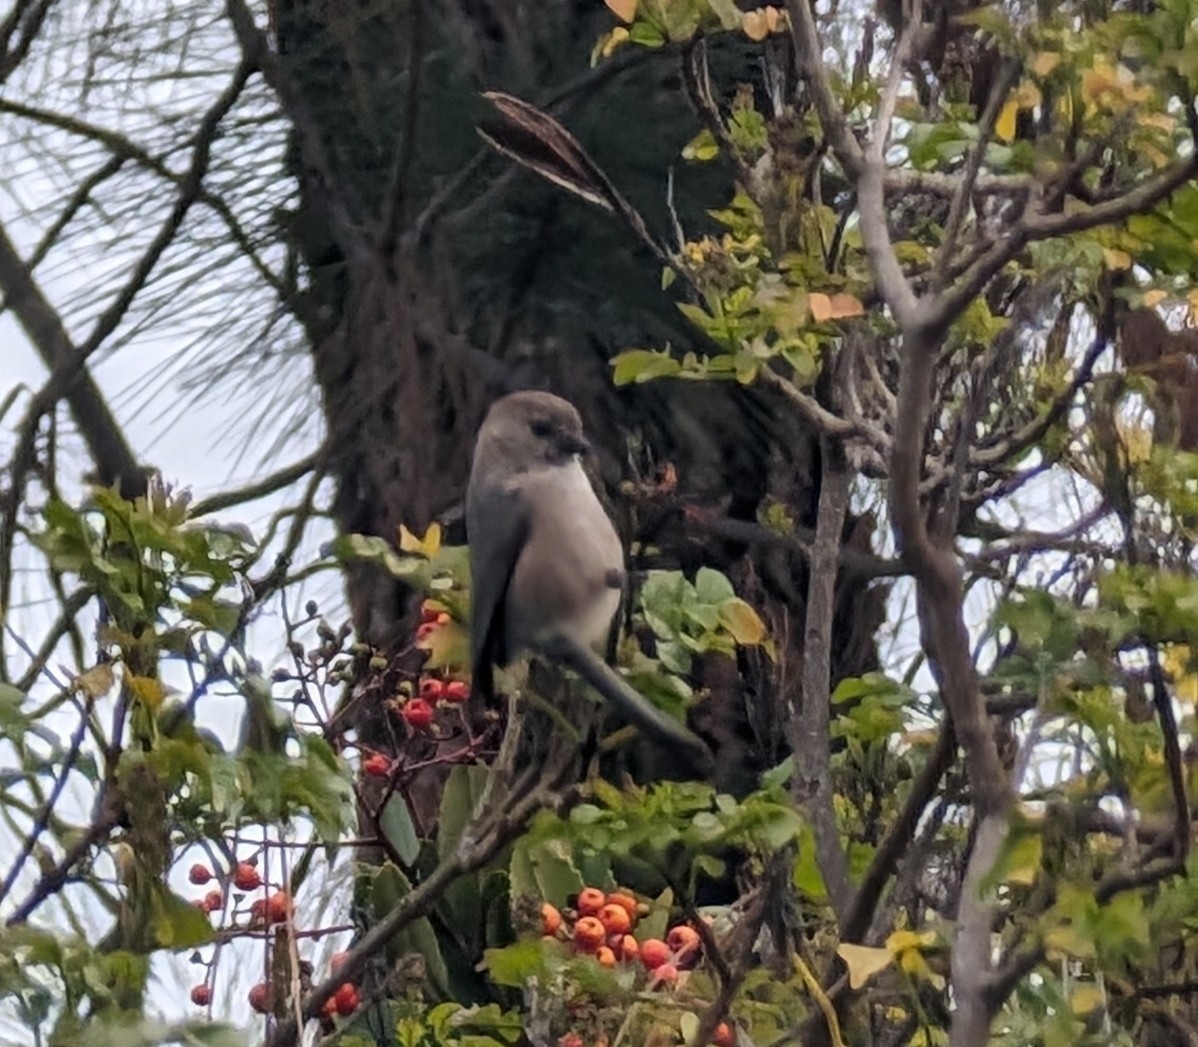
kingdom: Animalia
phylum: Chordata
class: Aves
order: Passeriformes
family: Aegithalidae
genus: Psaltriparus
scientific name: Psaltriparus minimus
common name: American bushtit
